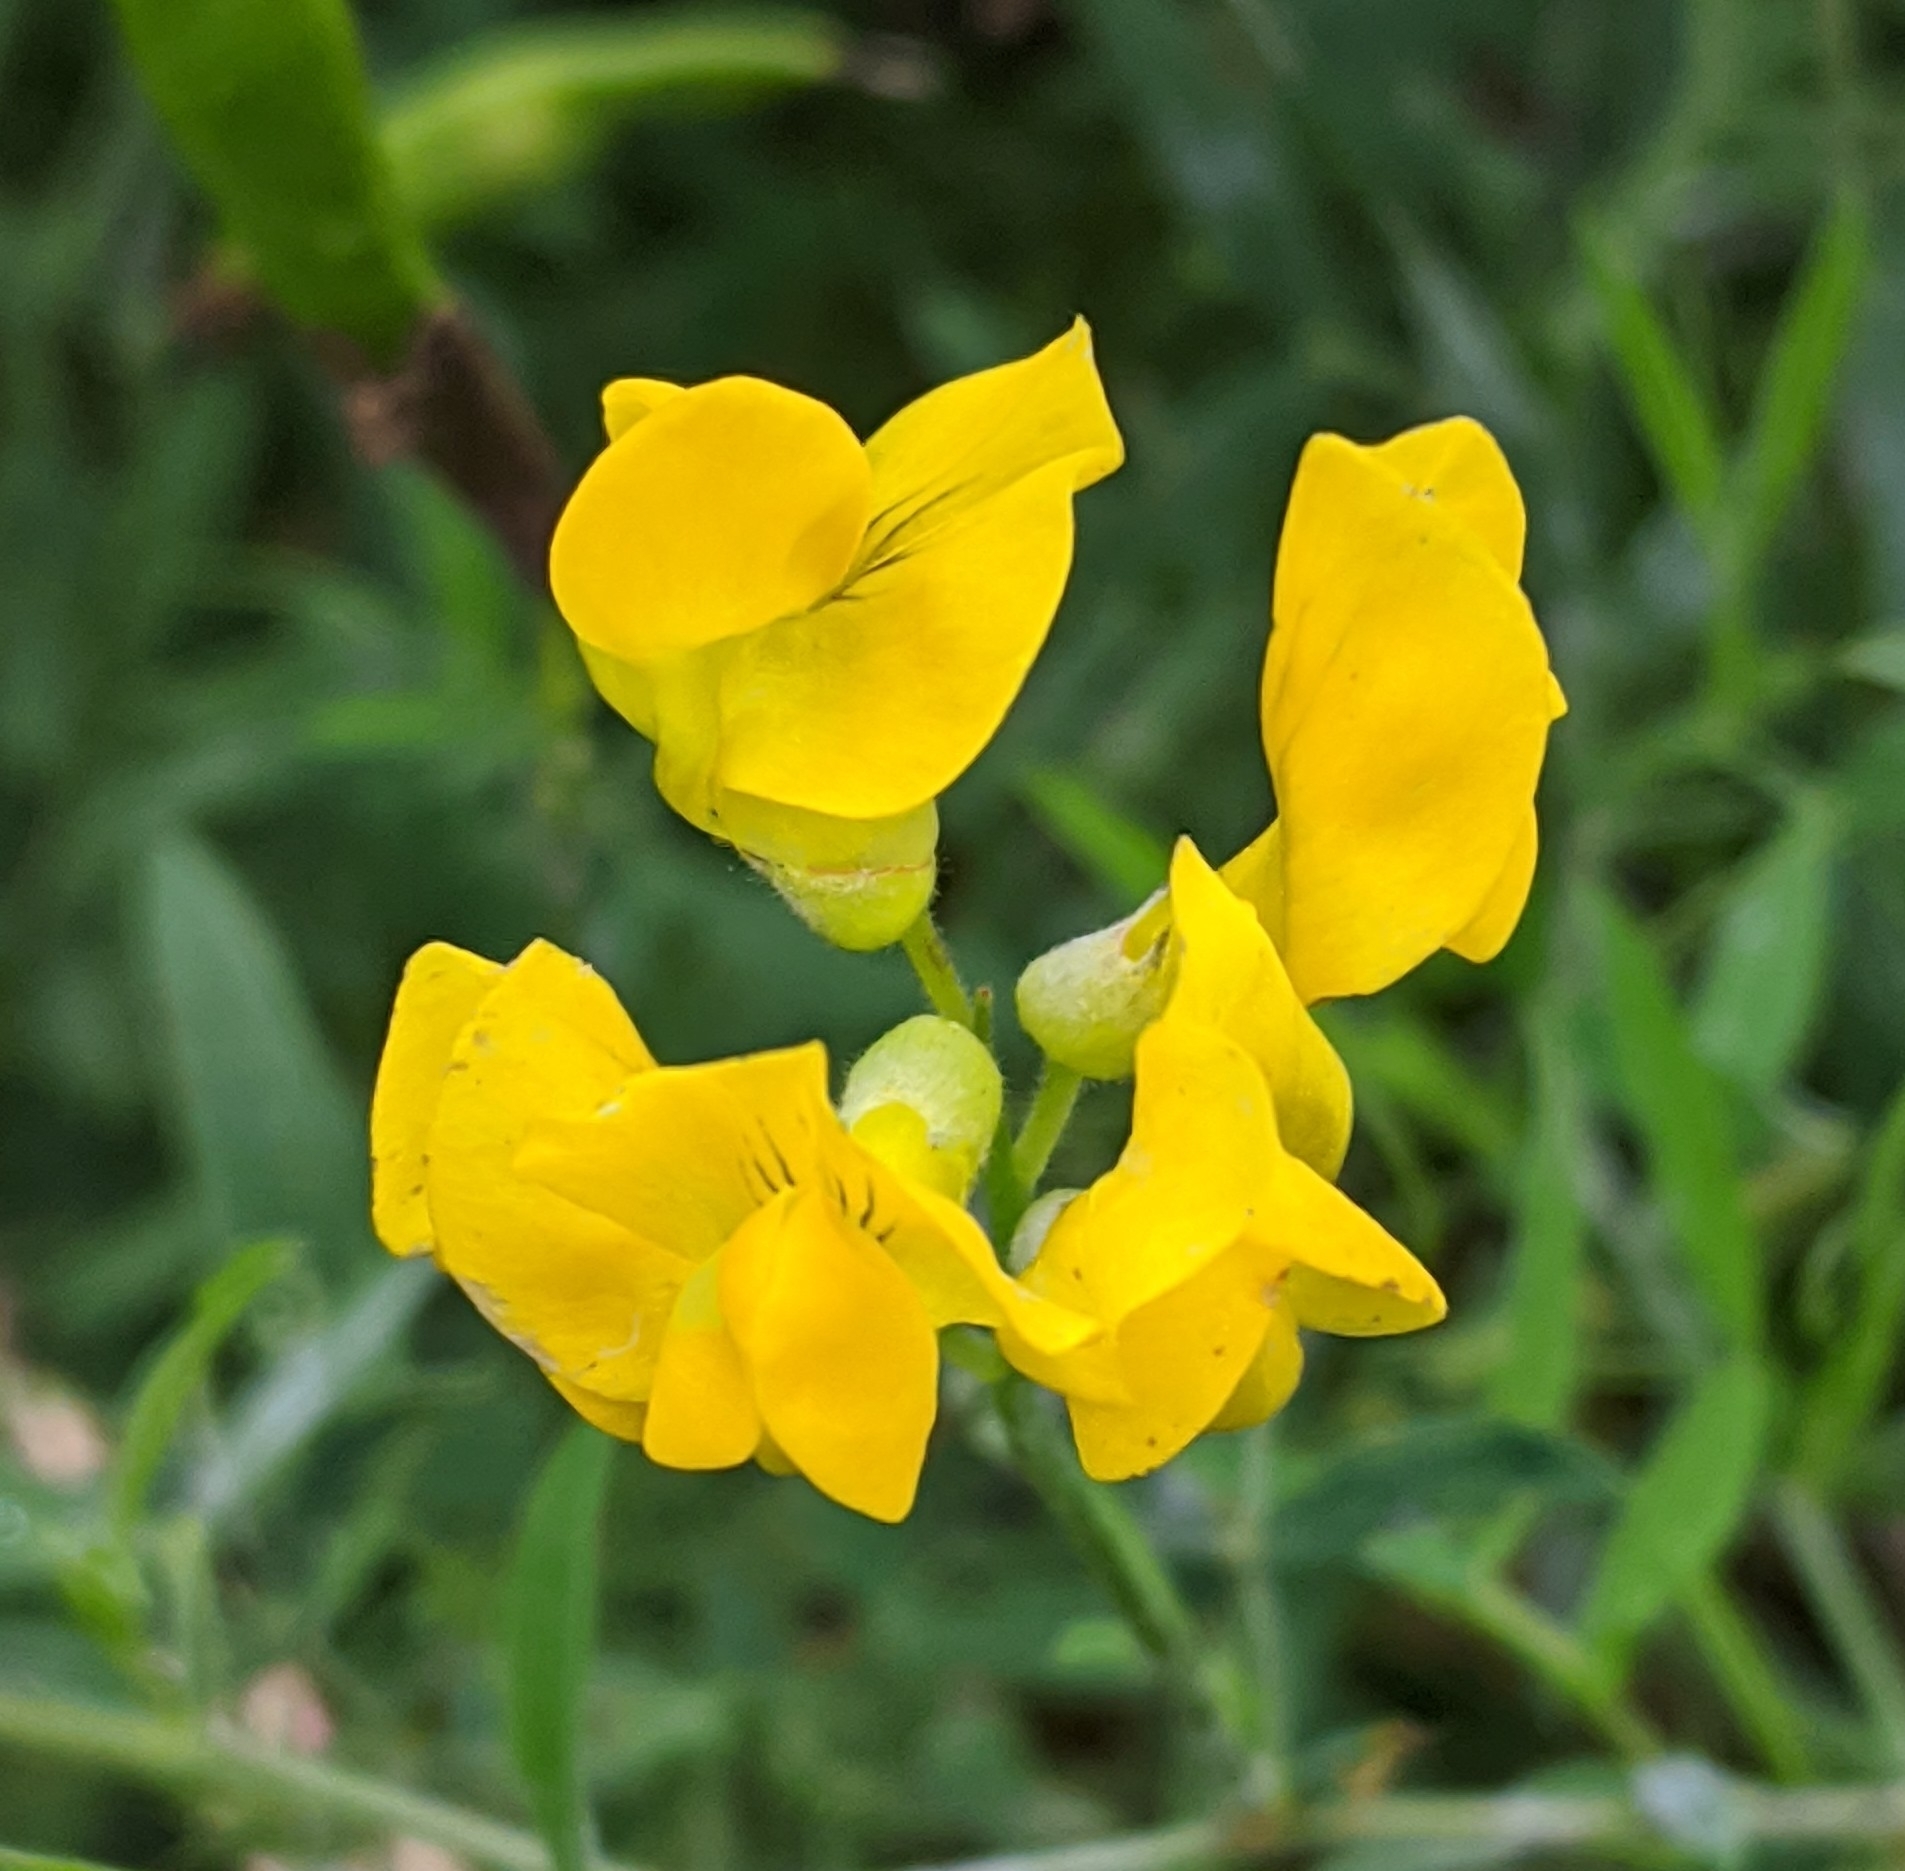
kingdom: Plantae
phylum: Tracheophyta
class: Magnoliopsida
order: Fabales
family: Fabaceae
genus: Lathyrus
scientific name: Lathyrus pratensis
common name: Meadow vetchling
